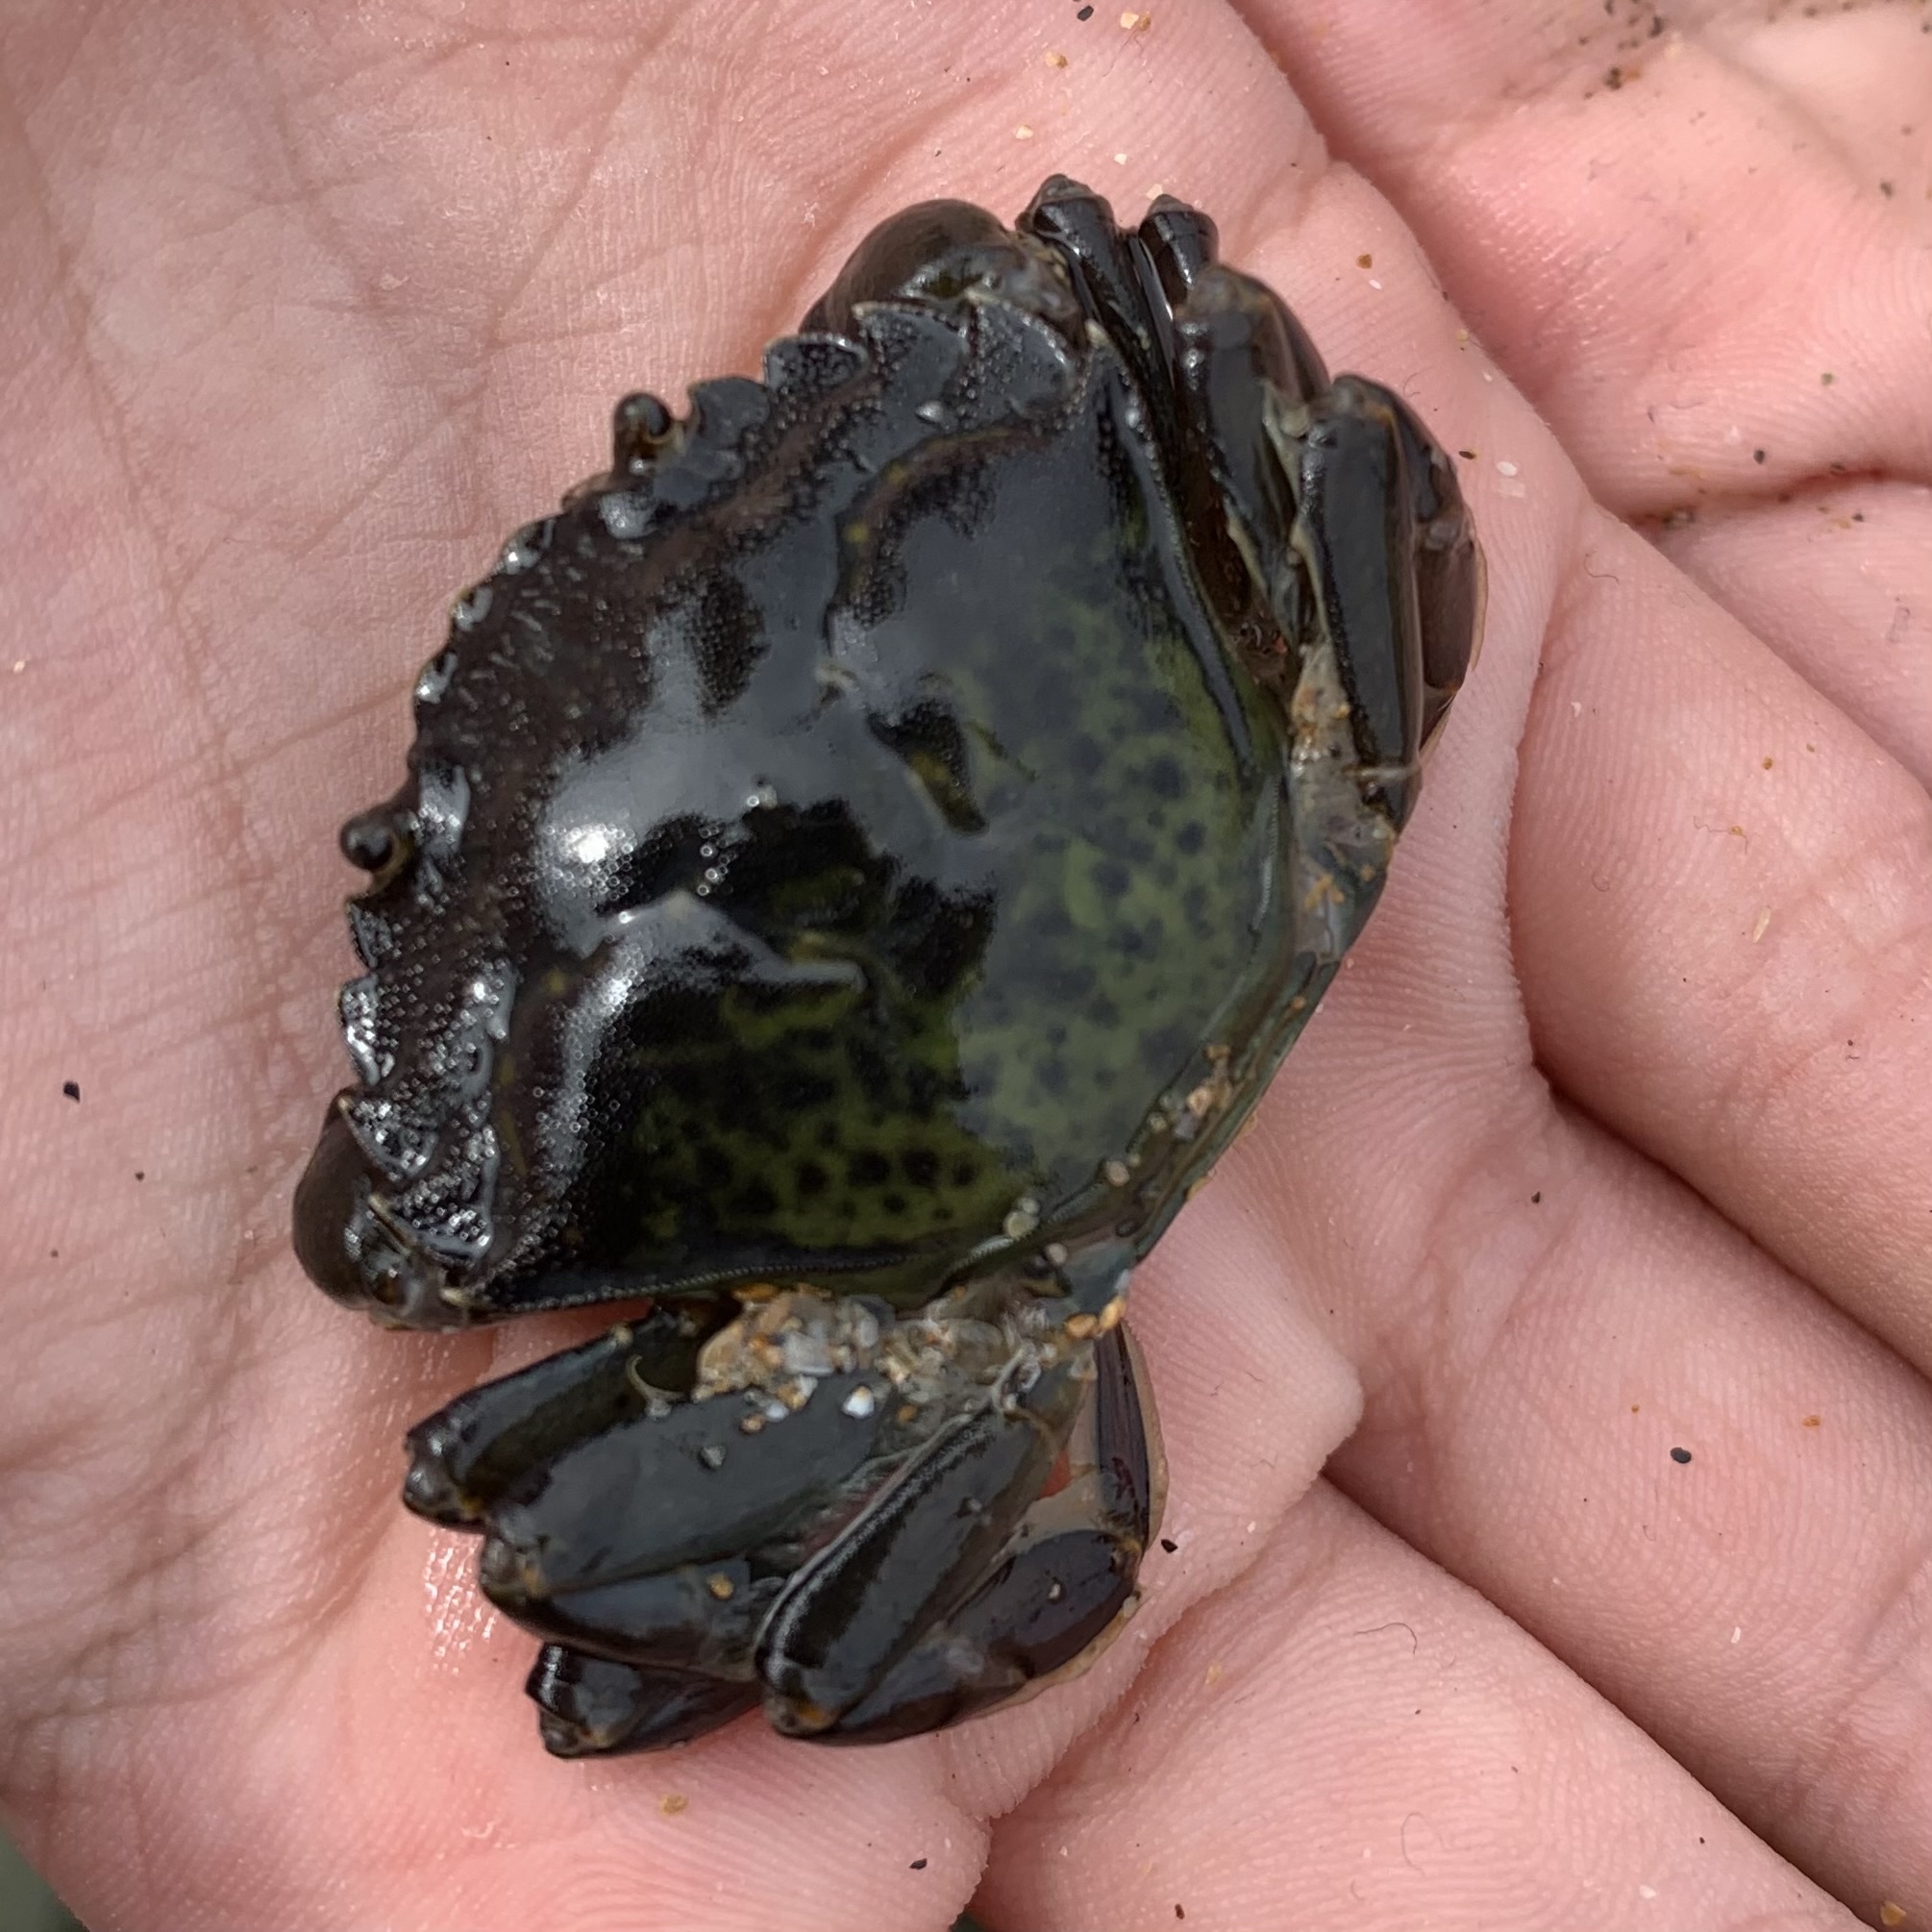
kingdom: Animalia
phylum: Arthropoda
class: Malacostraca
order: Decapoda
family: Carcinidae
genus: Carcinus
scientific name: Carcinus maenas
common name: European green crab
